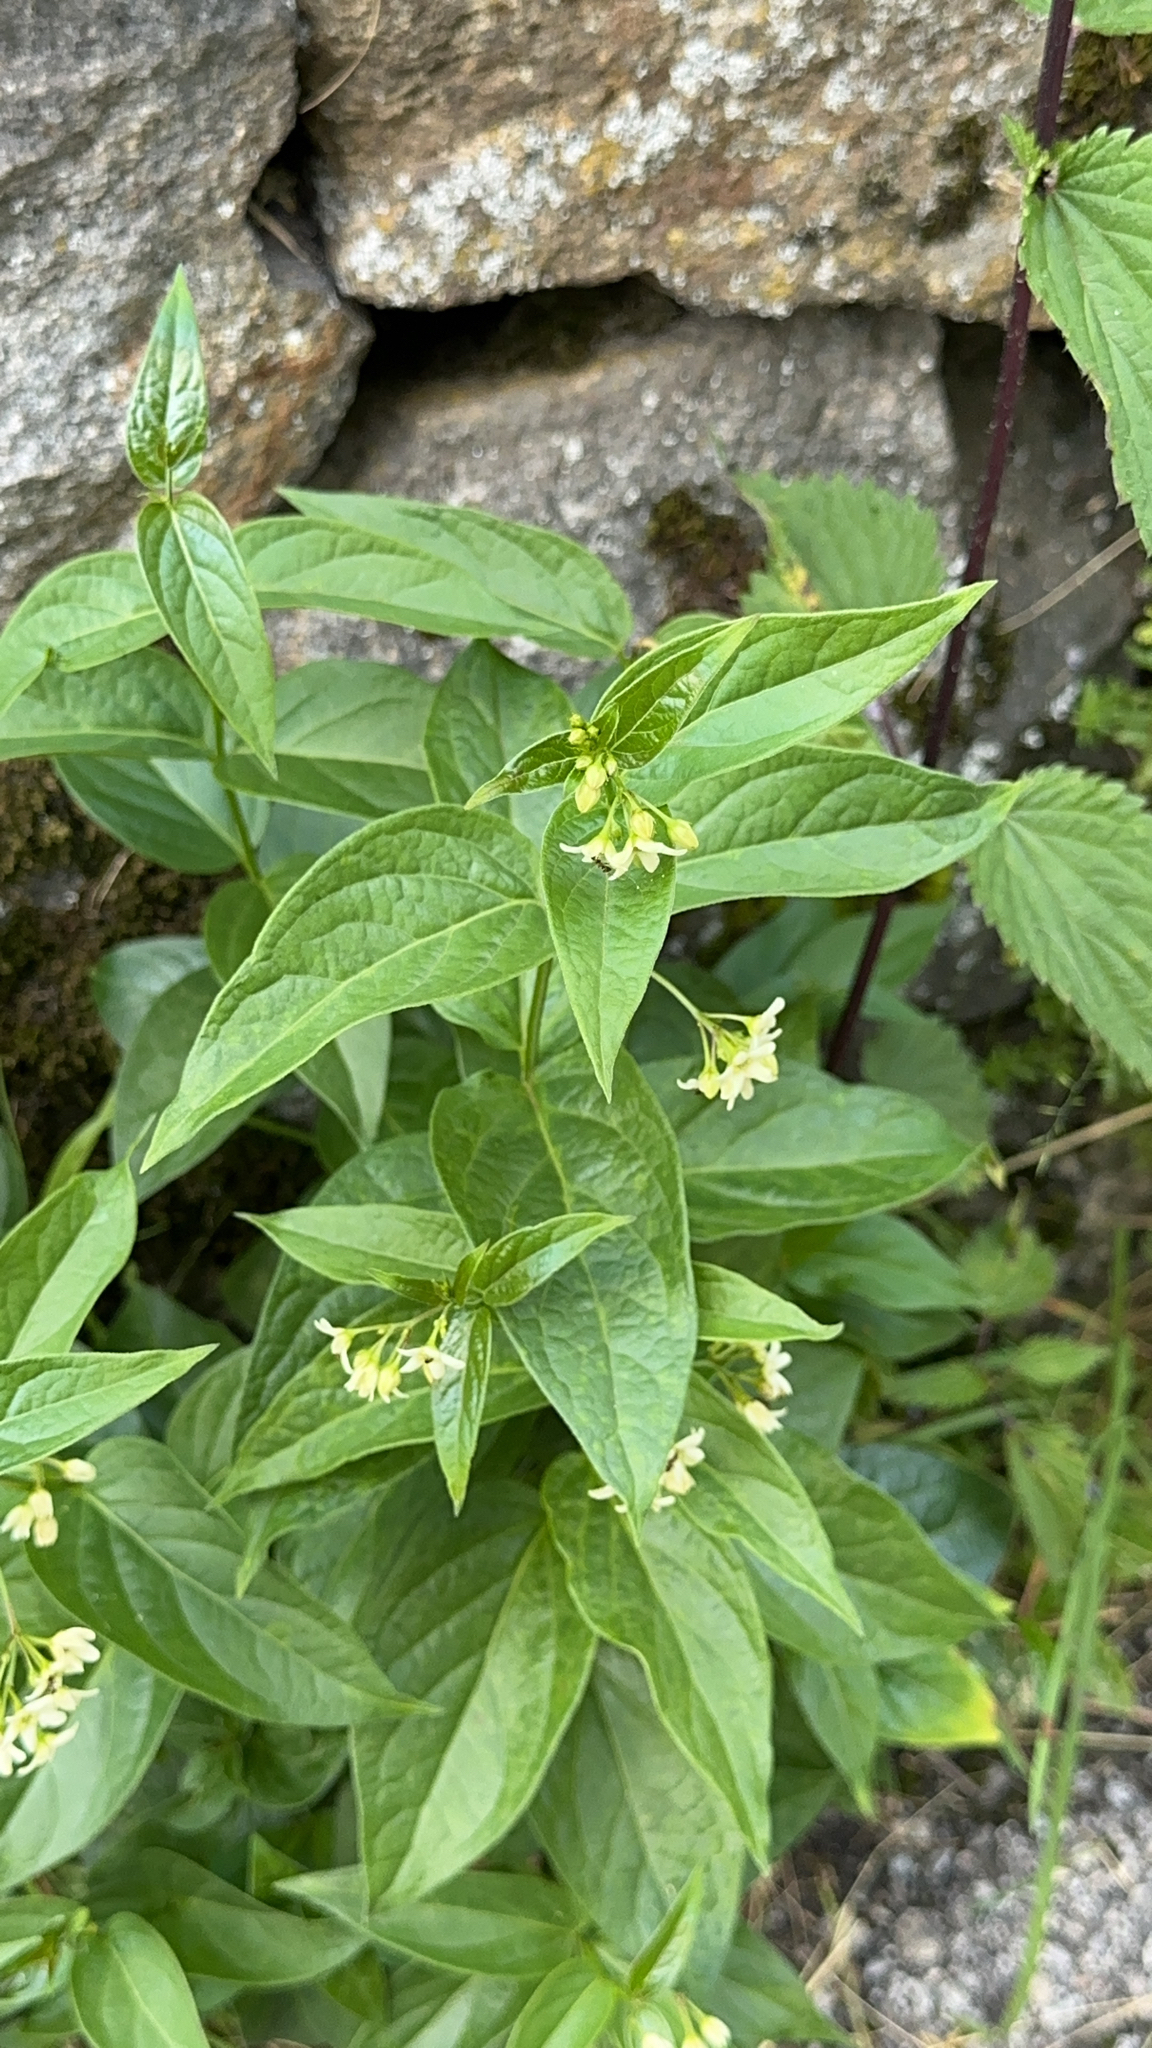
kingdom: Plantae
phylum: Tracheophyta
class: Magnoliopsida
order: Gentianales
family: Apocynaceae
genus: Vincetoxicum
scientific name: Vincetoxicum hirundinaria
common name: White swallowwort
